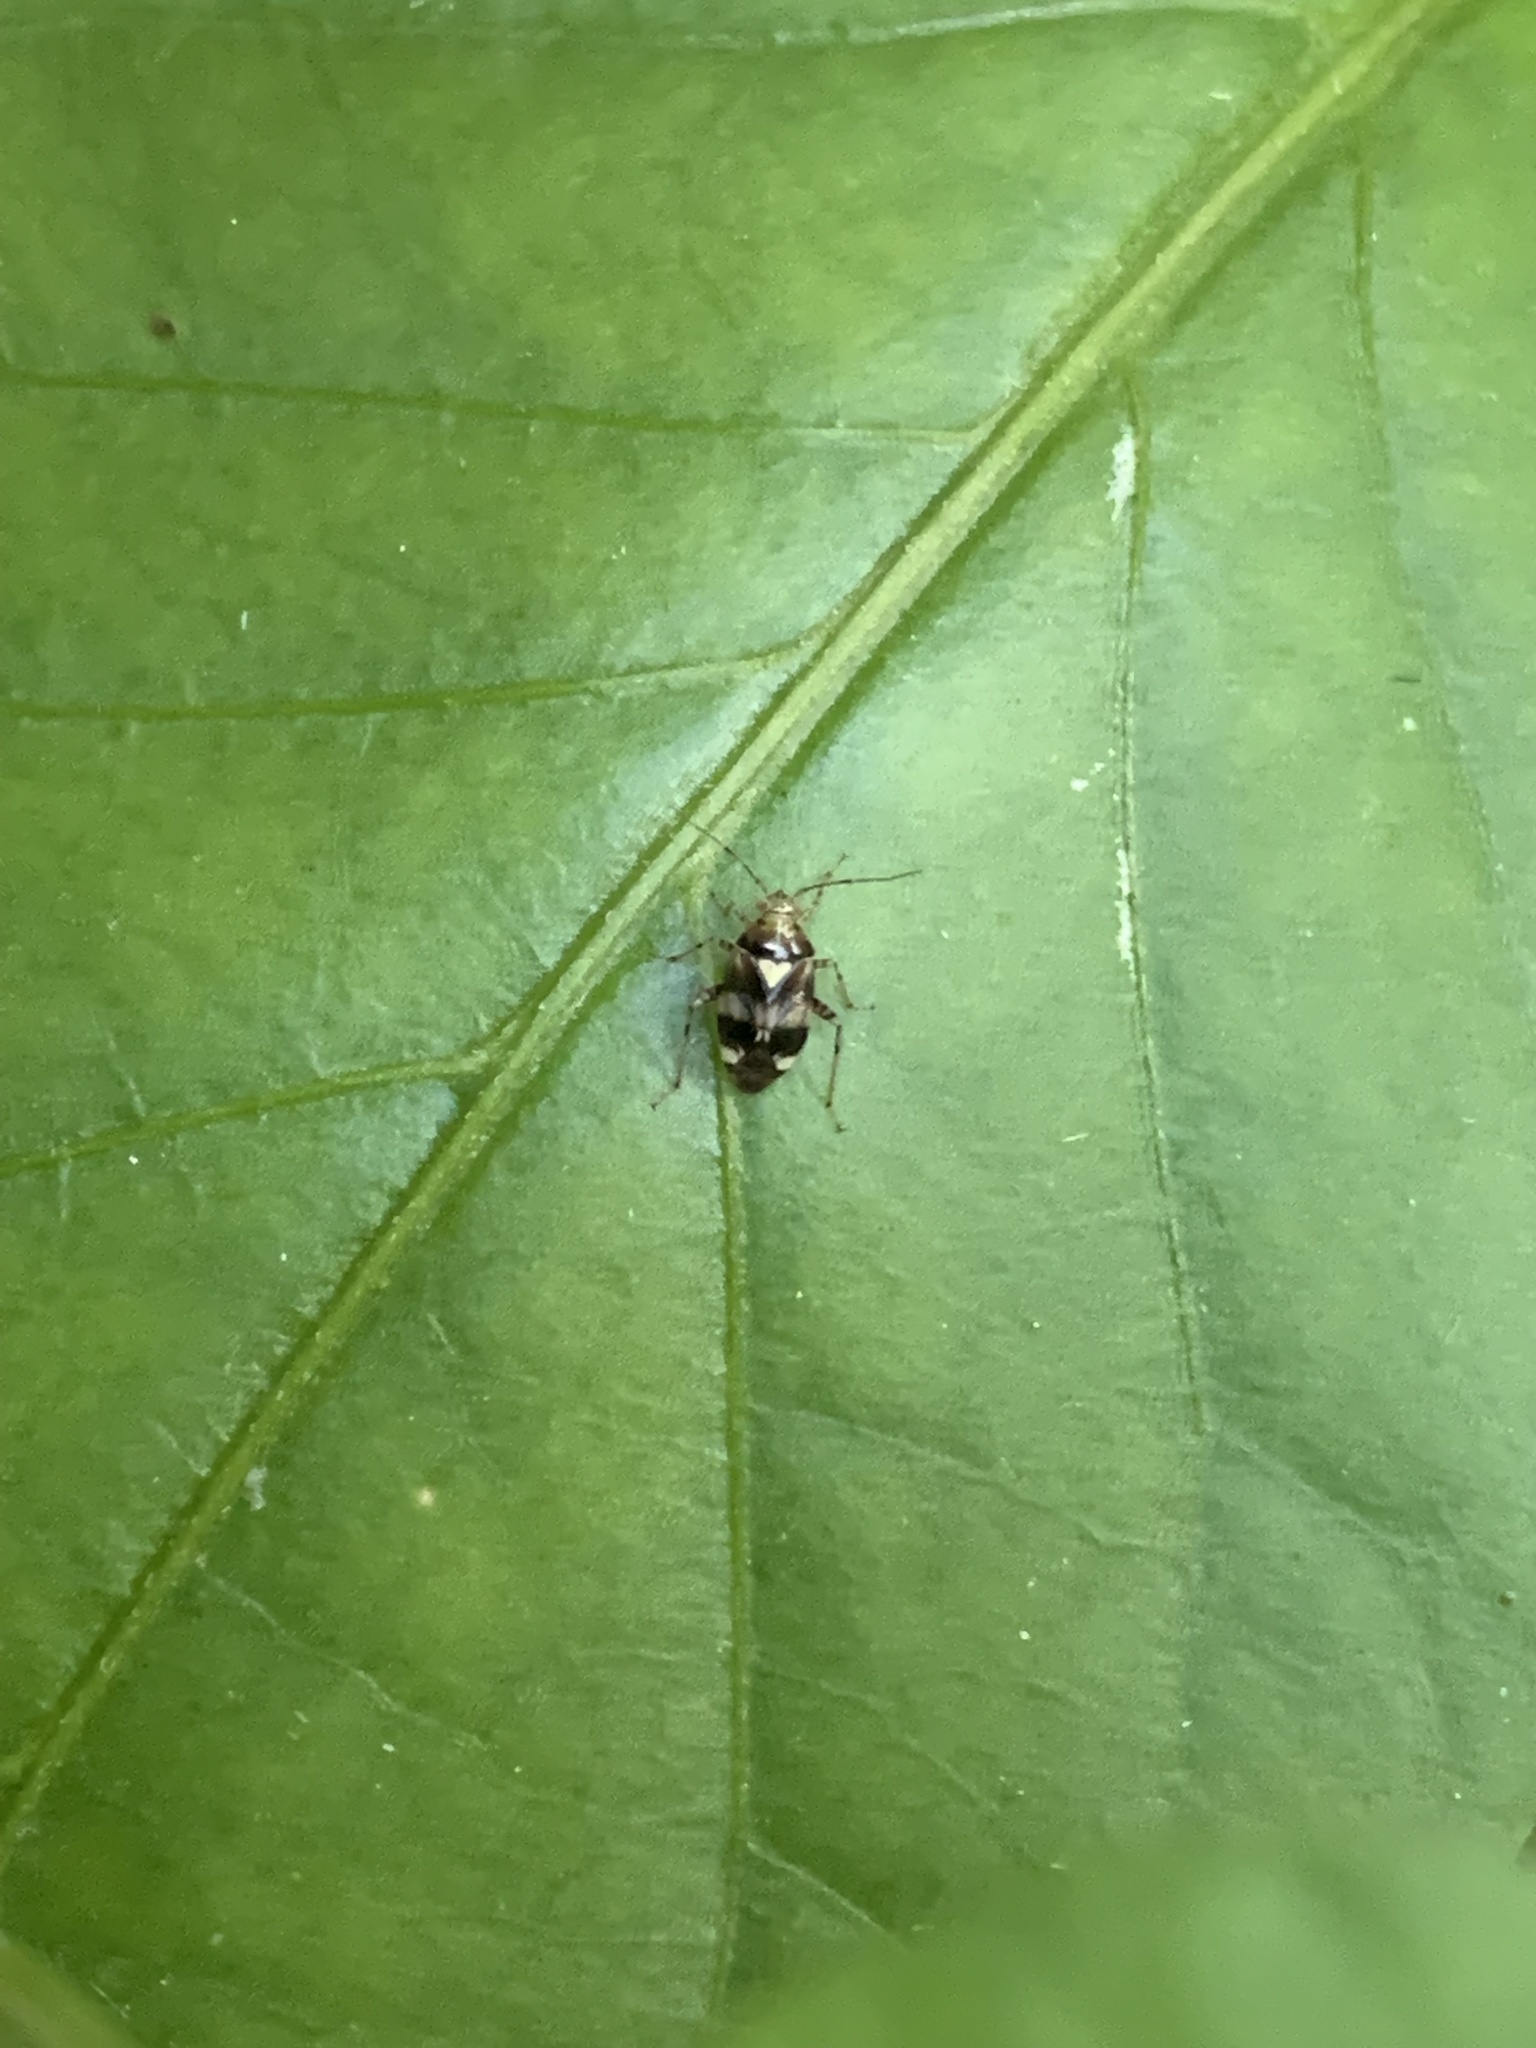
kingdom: Animalia
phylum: Arthropoda
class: Insecta
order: Hemiptera
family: Miridae
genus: Liocoris
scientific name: Liocoris tripustulatus
